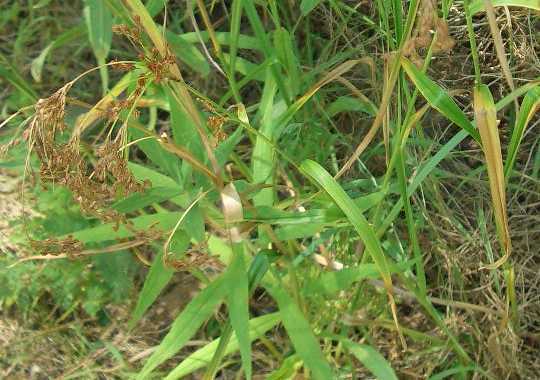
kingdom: Plantae
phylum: Tracheophyta
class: Liliopsida
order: Poales
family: Cyperaceae
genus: Scirpus
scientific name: Scirpus pendulus
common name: Nodding bulrush
